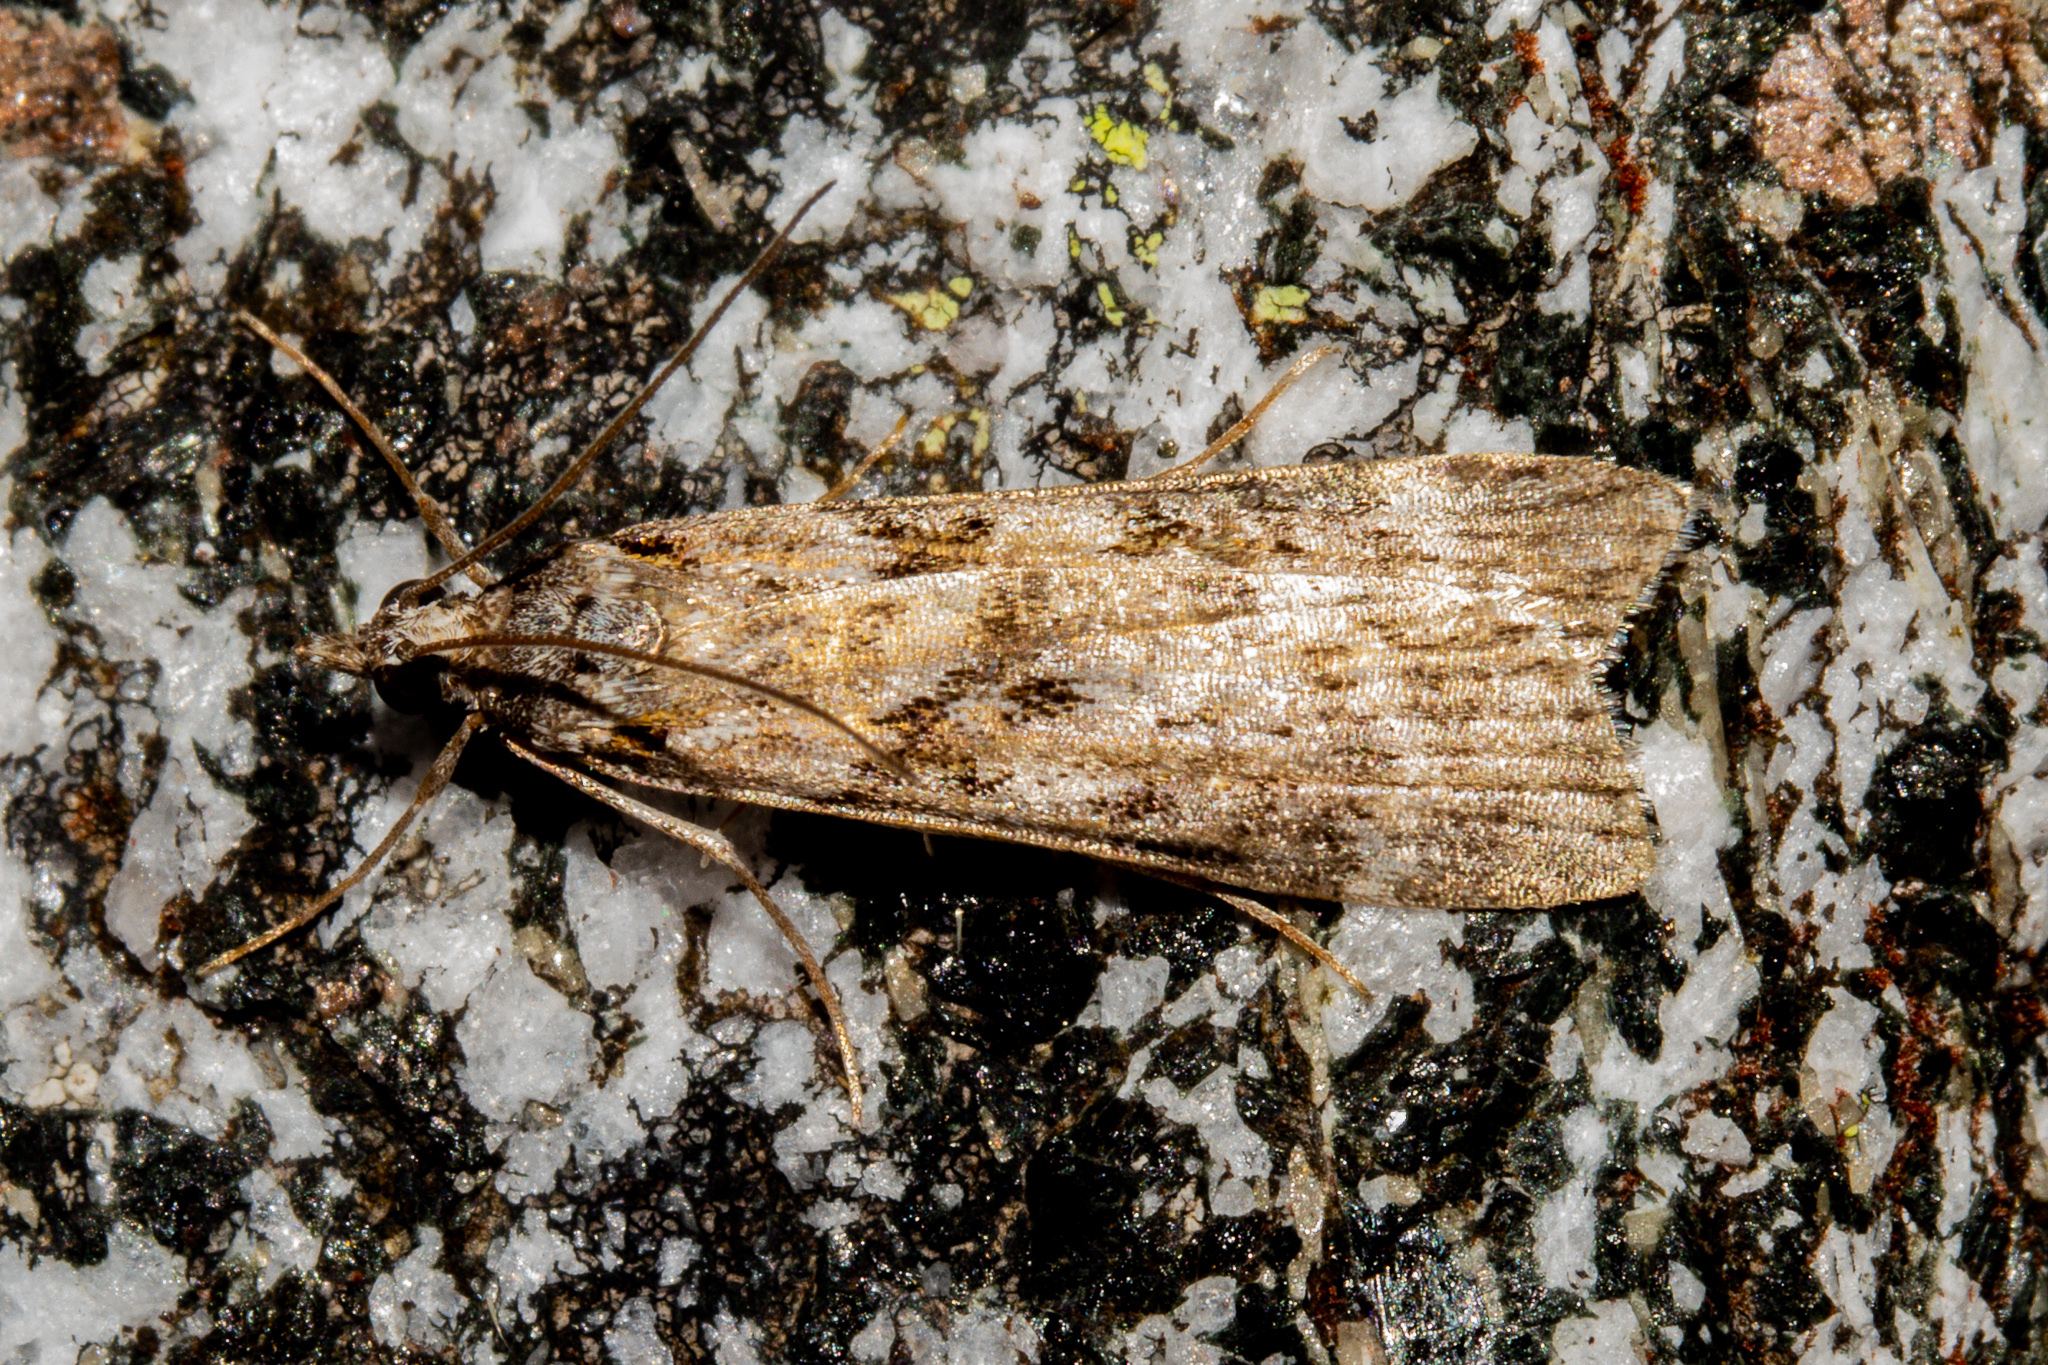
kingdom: Animalia
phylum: Arthropoda
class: Insecta
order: Lepidoptera
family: Crambidae
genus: Scoparia
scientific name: Scoparia petrina
